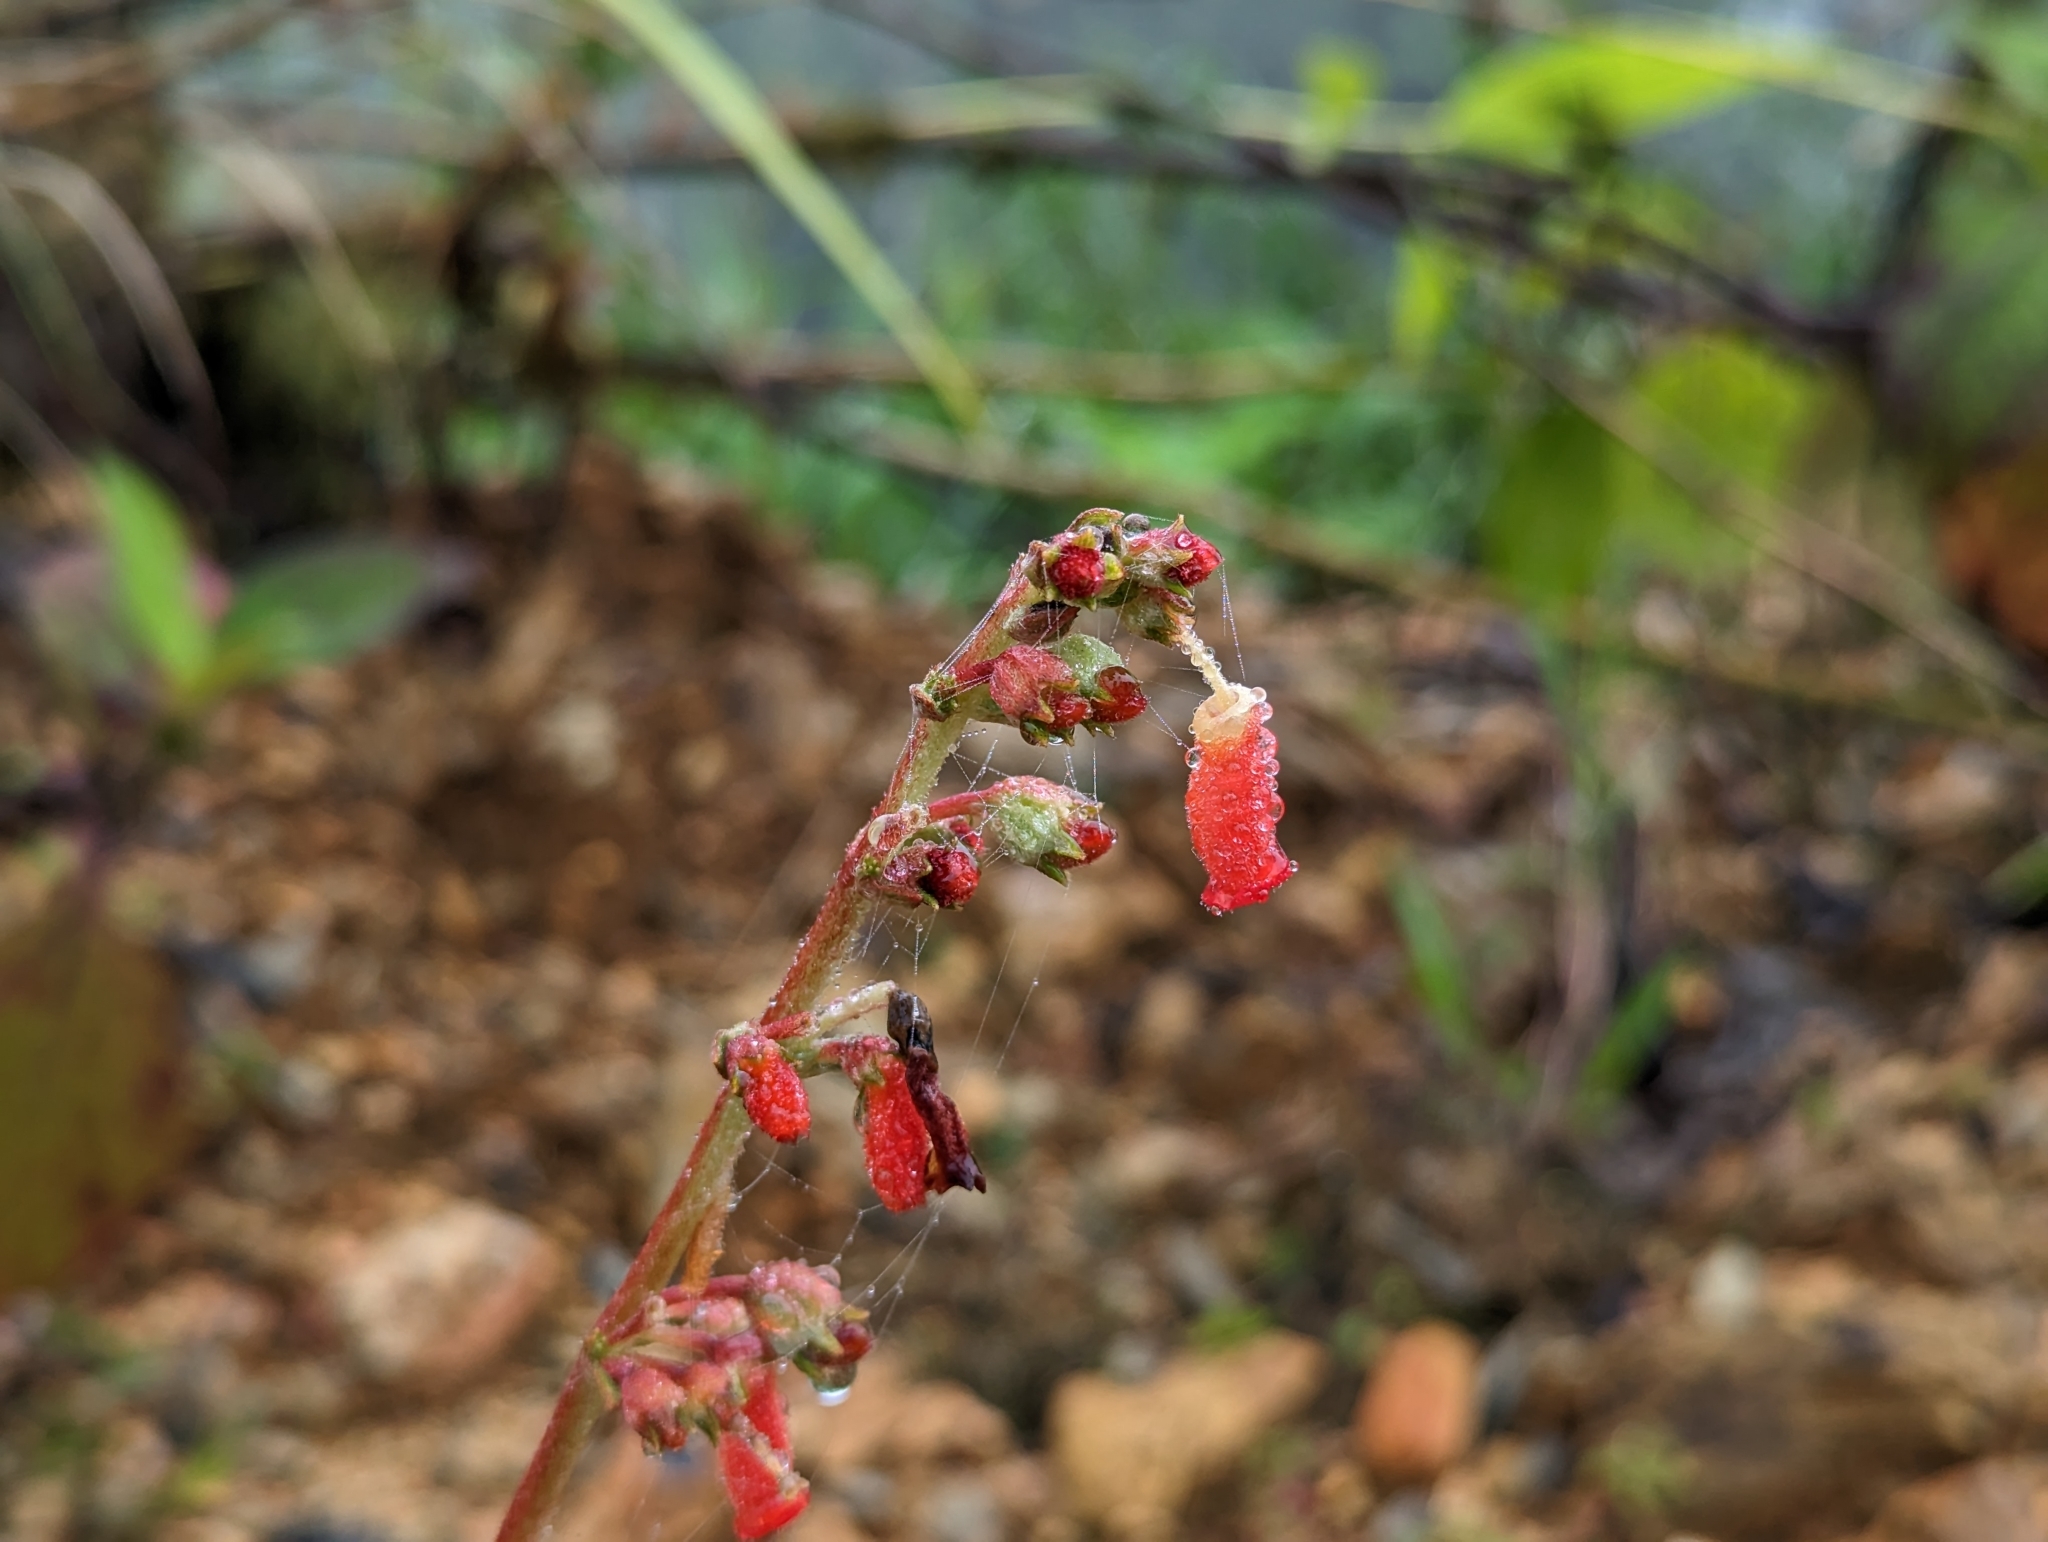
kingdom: Plantae
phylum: Tracheophyta
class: Magnoliopsida
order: Lamiales
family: Gesneriaceae
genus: Kohleria
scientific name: Kohleria spicata
